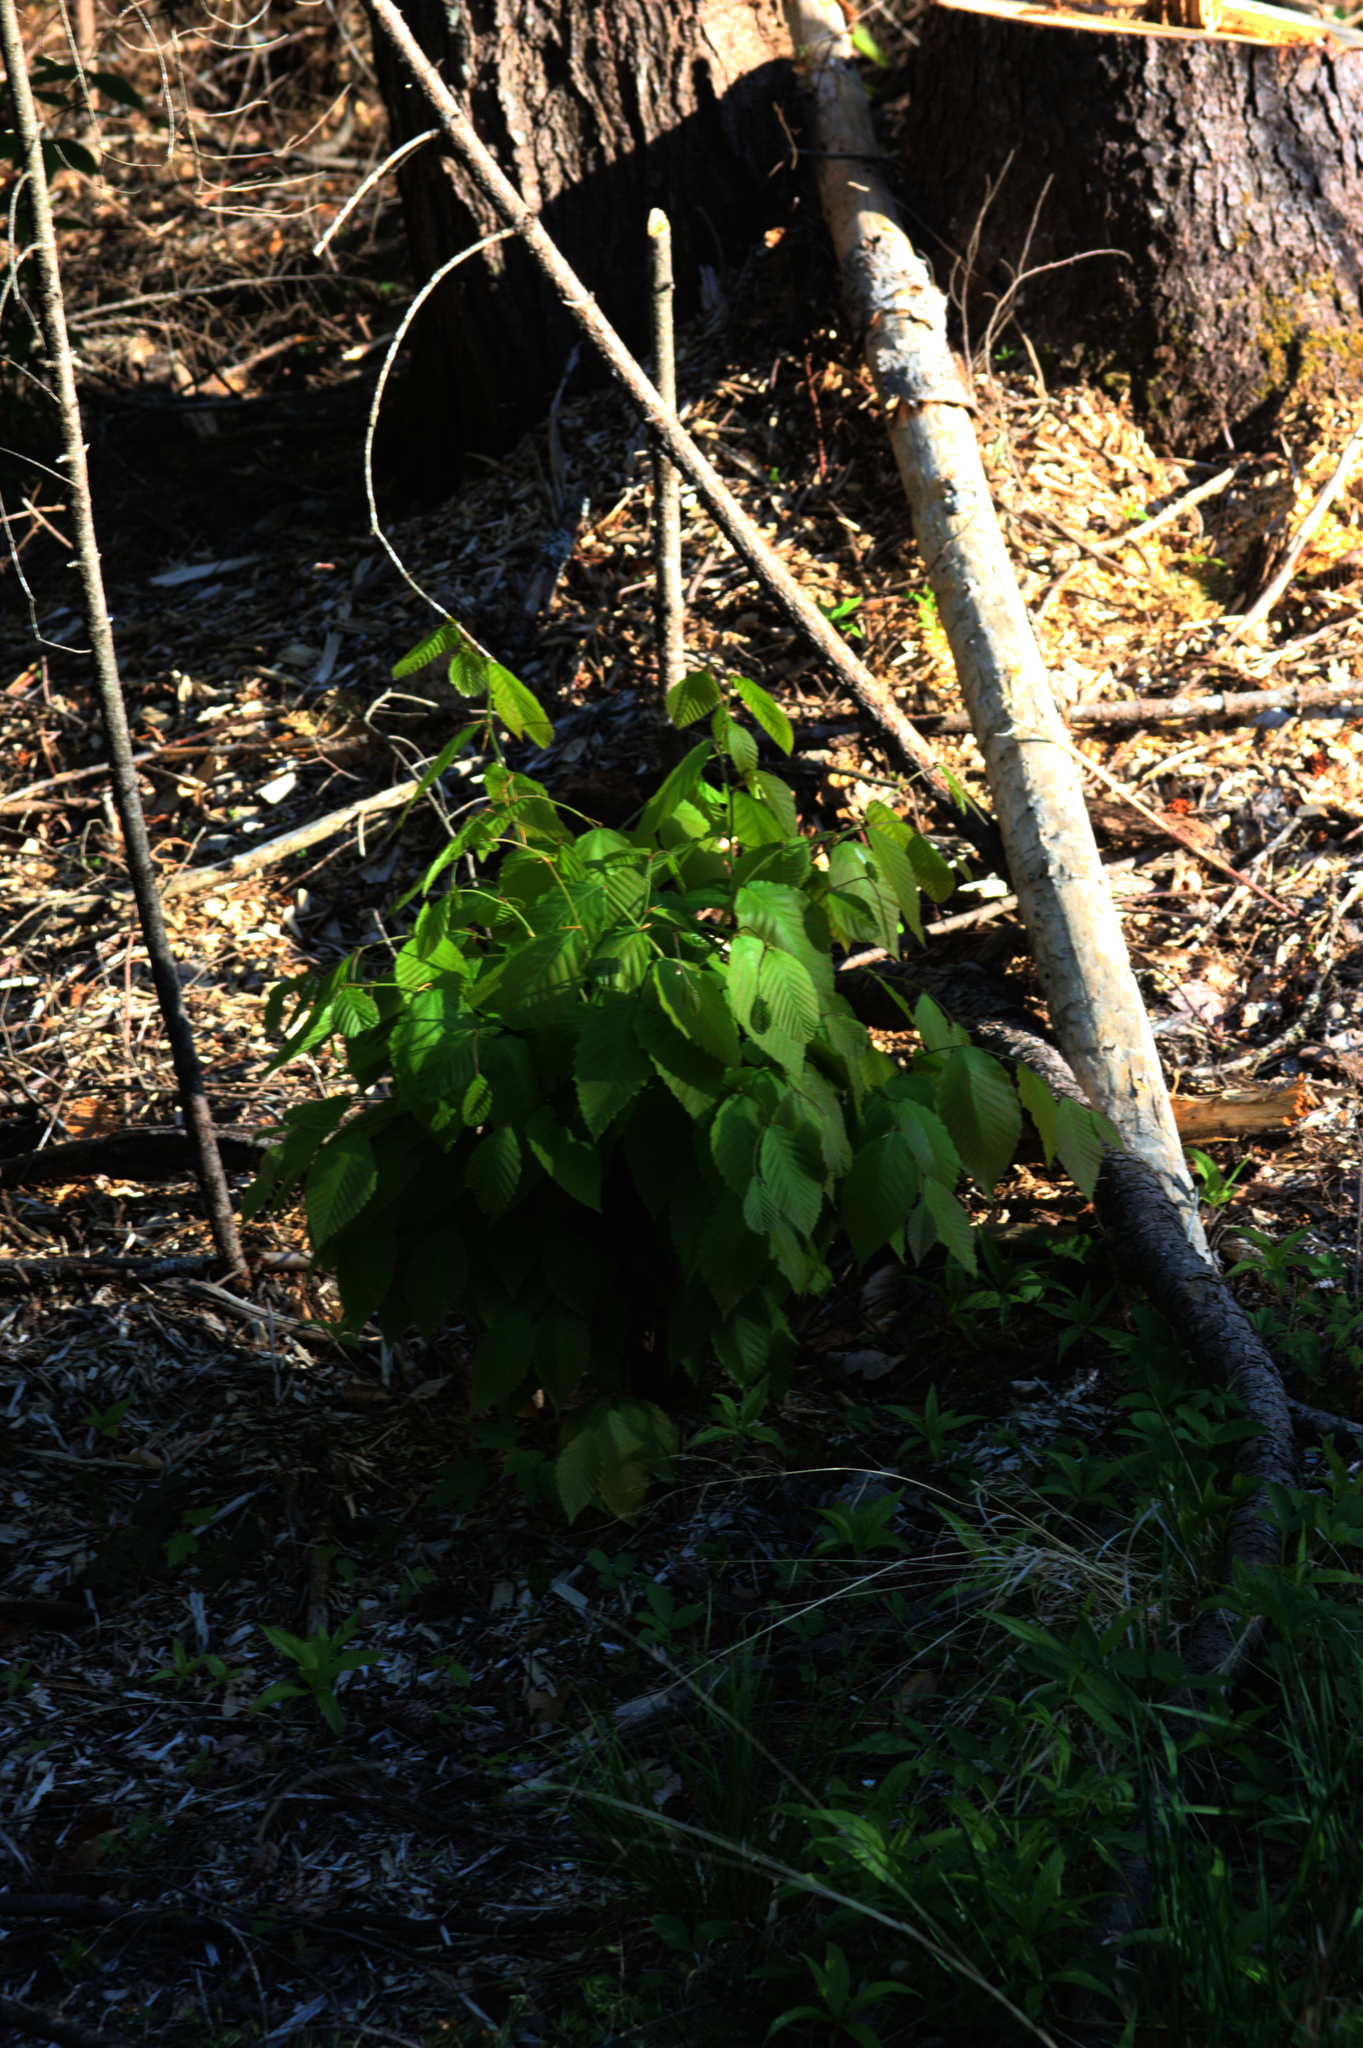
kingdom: Plantae
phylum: Tracheophyta
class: Magnoliopsida
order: Fagales
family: Fagaceae
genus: Fagus
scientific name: Fagus grandifolia
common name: American beech
